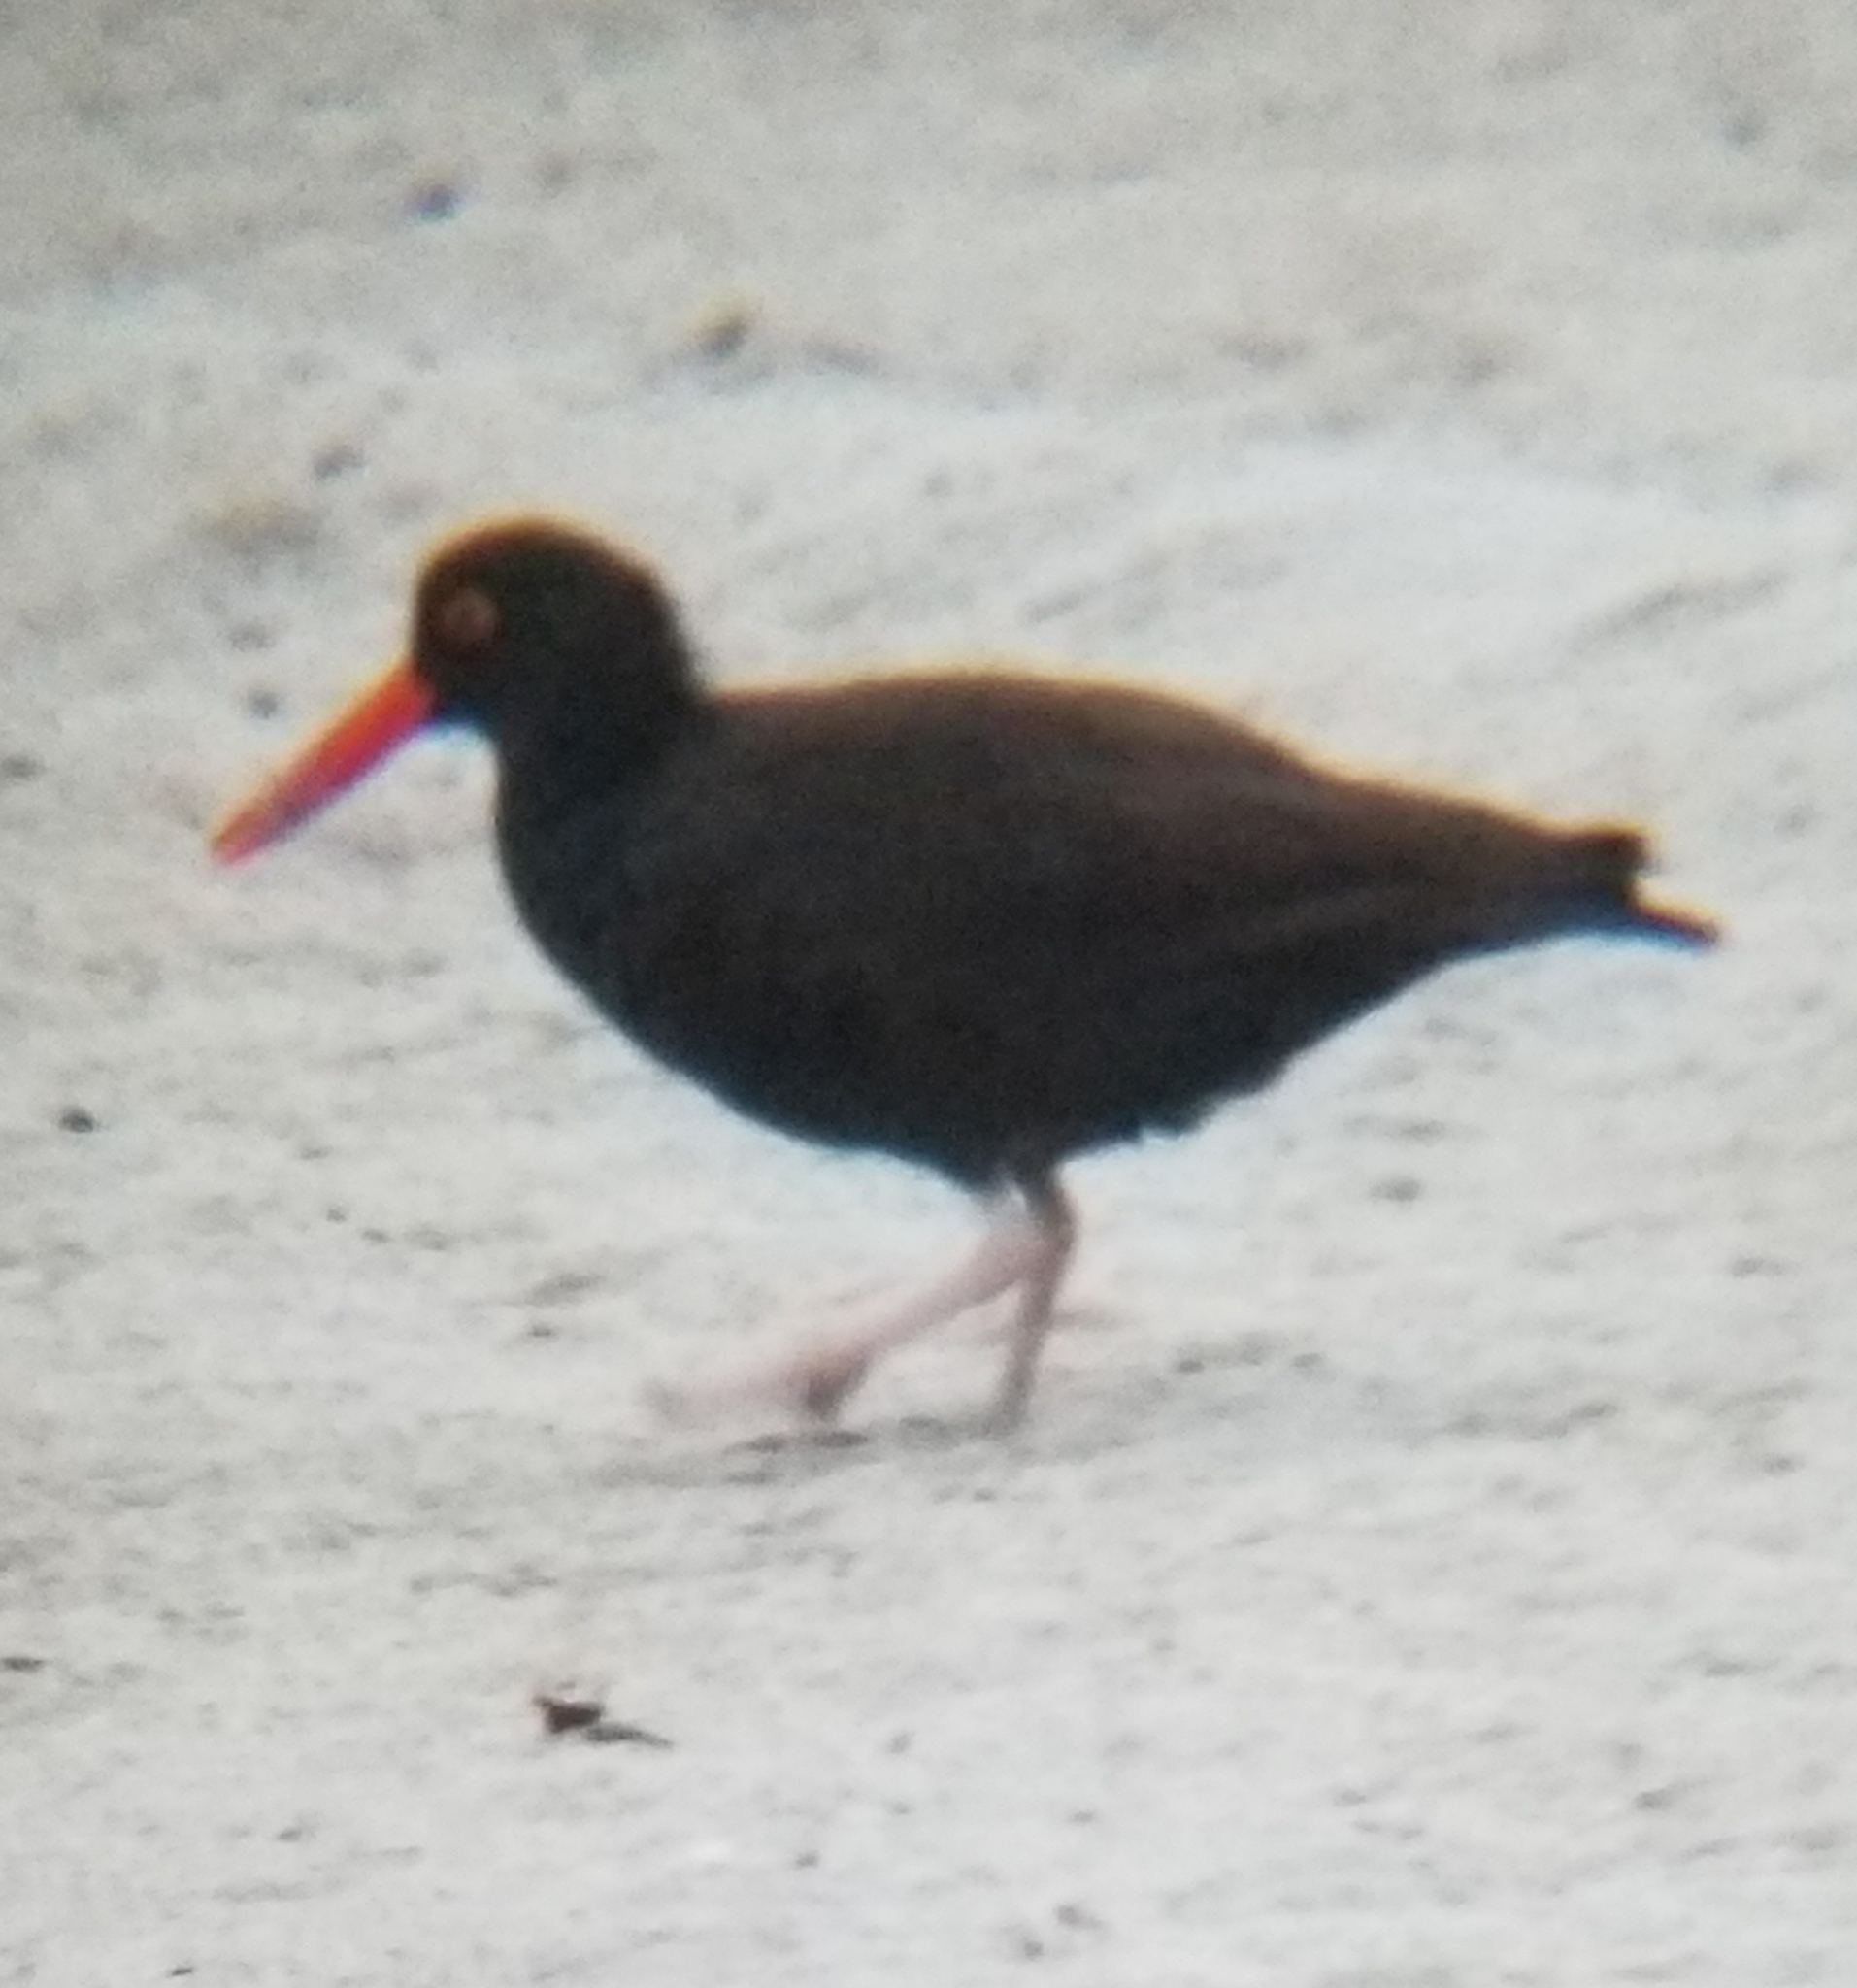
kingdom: Animalia
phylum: Chordata
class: Aves
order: Charadriiformes
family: Haematopodidae
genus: Haematopus
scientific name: Haematopus bachmani
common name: Black oystercatcher
